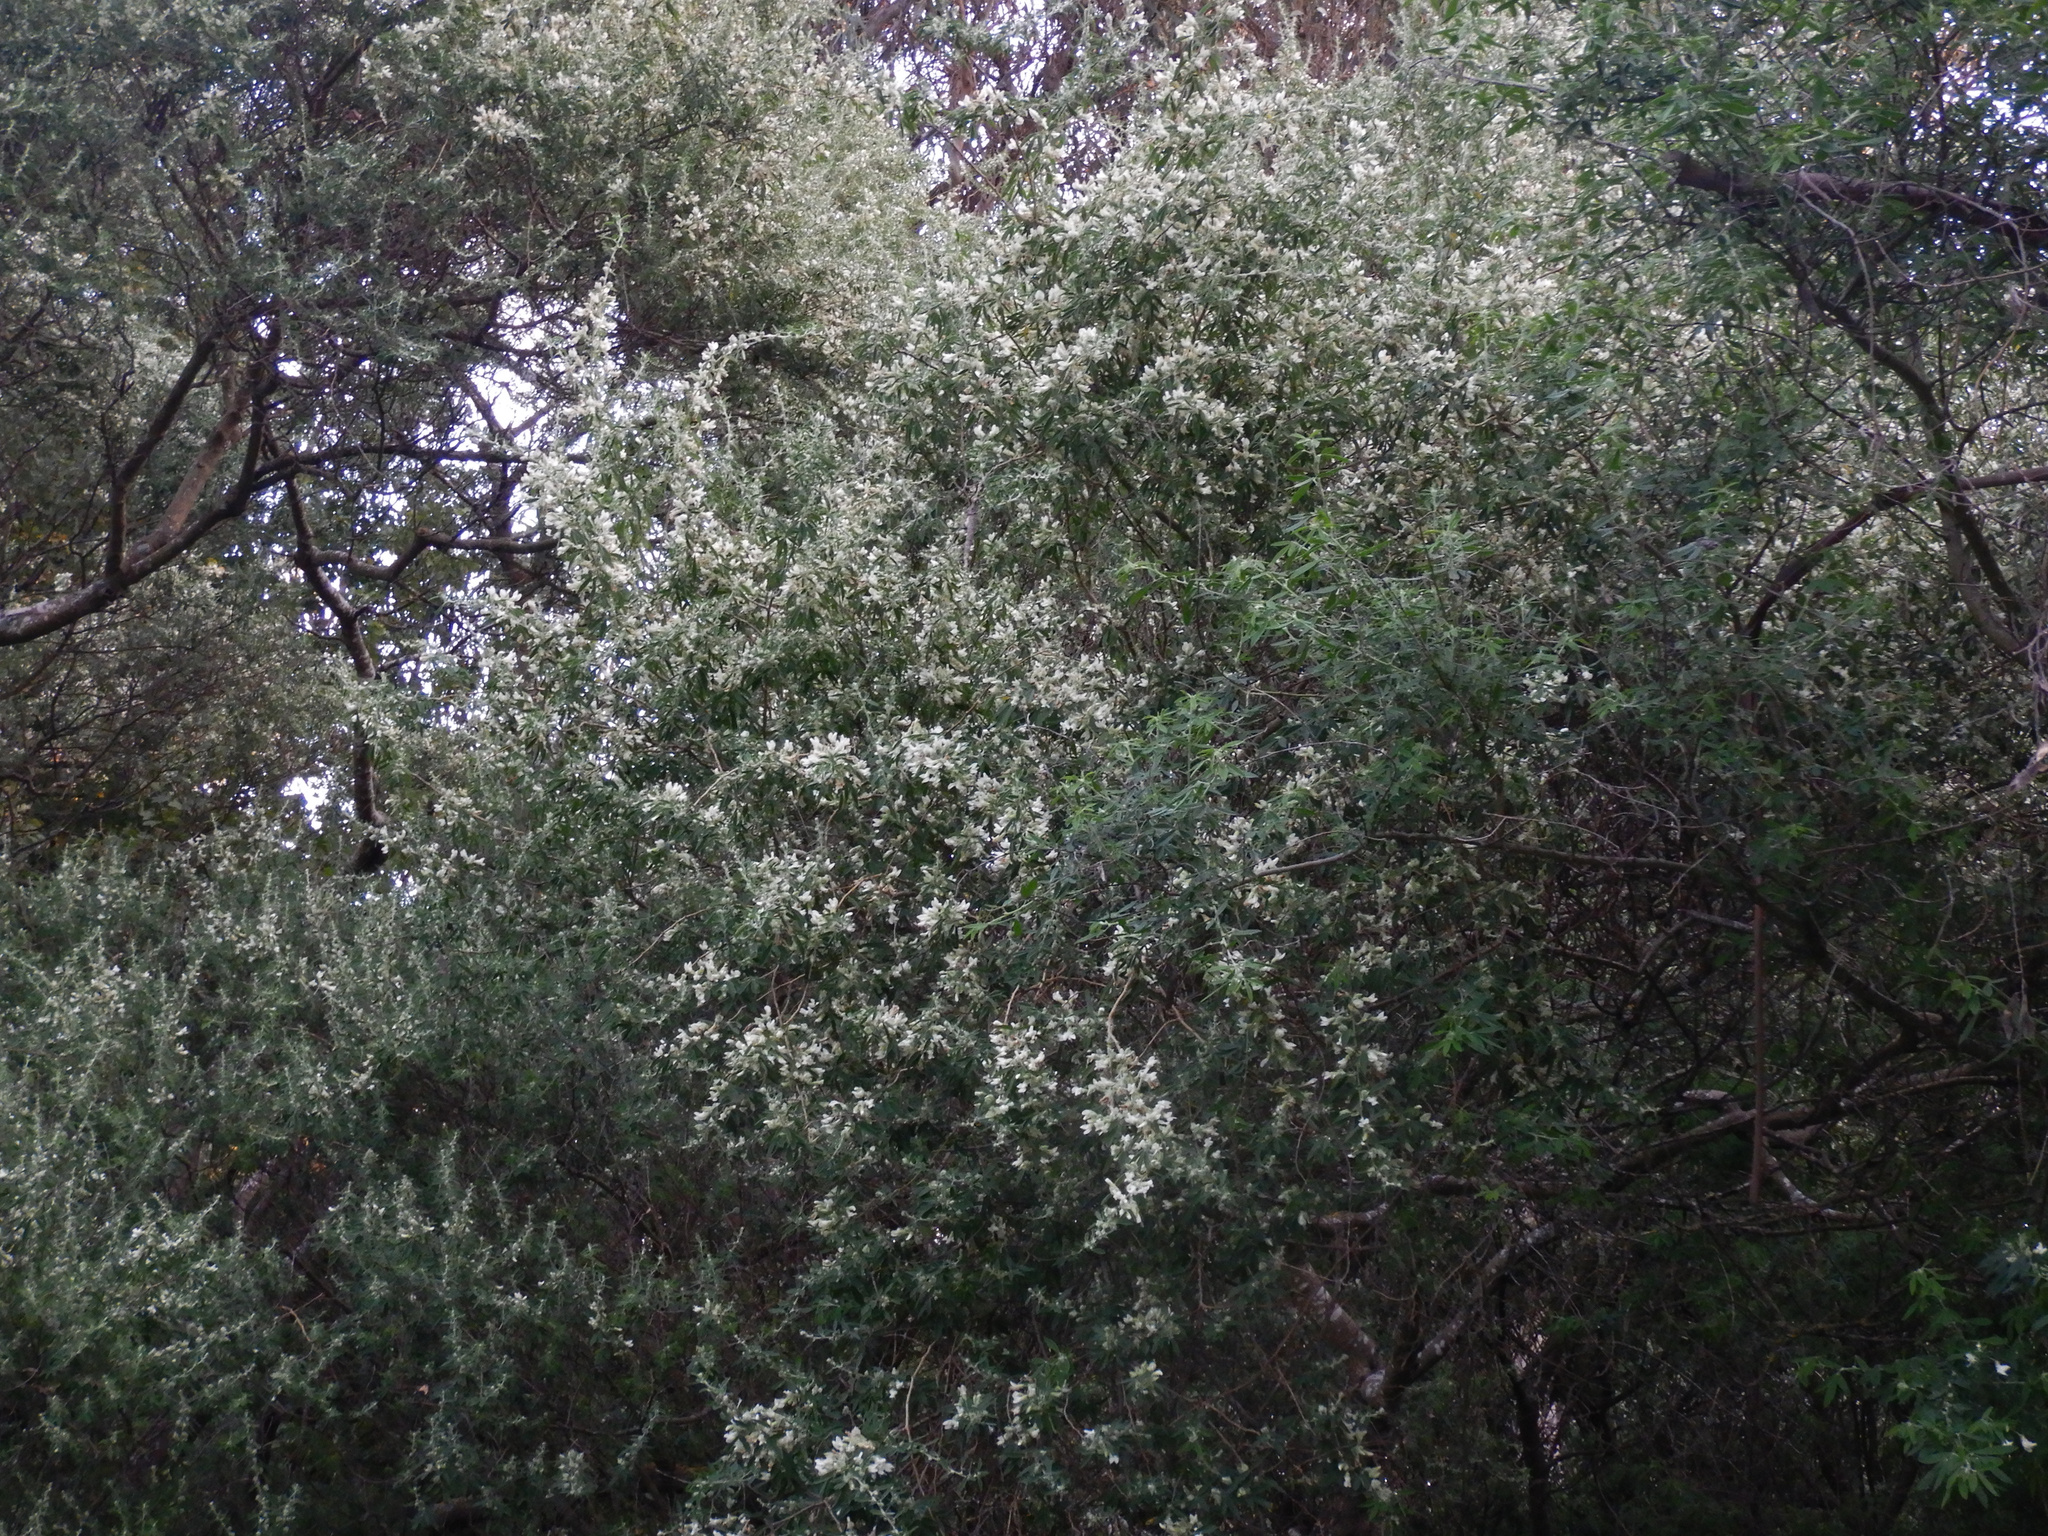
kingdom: Plantae
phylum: Tracheophyta
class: Magnoliopsida
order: Fabales
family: Fabaceae
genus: Chamaecytisus
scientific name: Chamaecytisus prolifer
